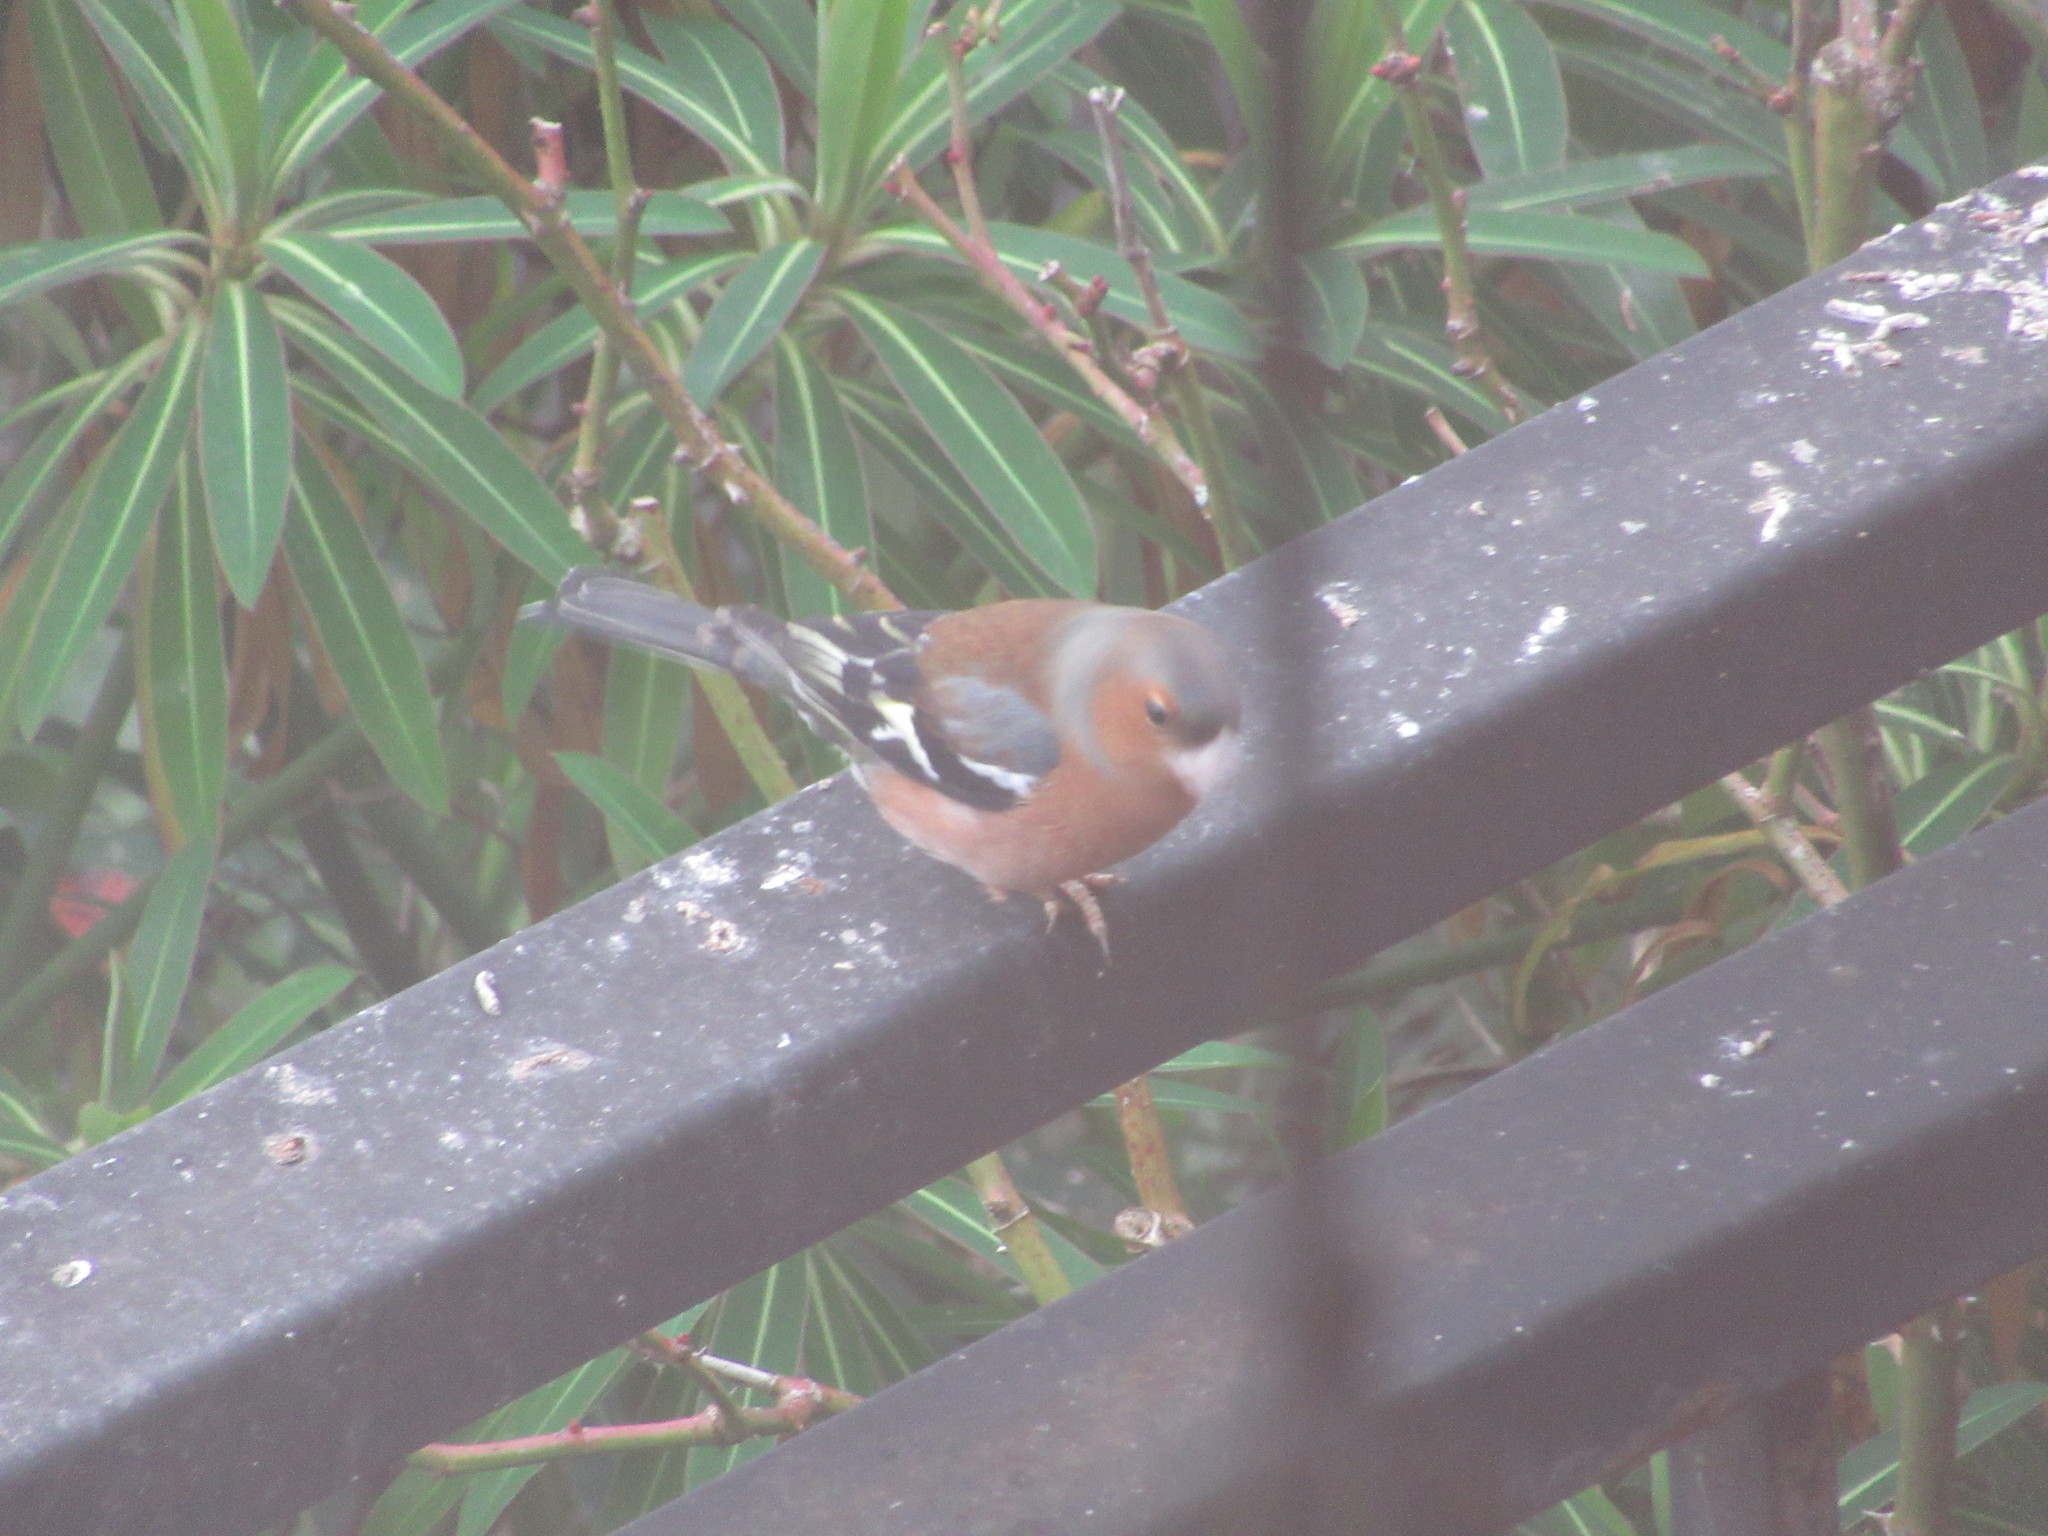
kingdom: Animalia
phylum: Chordata
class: Aves
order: Passeriformes
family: Fringillidae
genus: Fringilla
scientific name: Fringilla coelebs
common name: Common chaffinch
